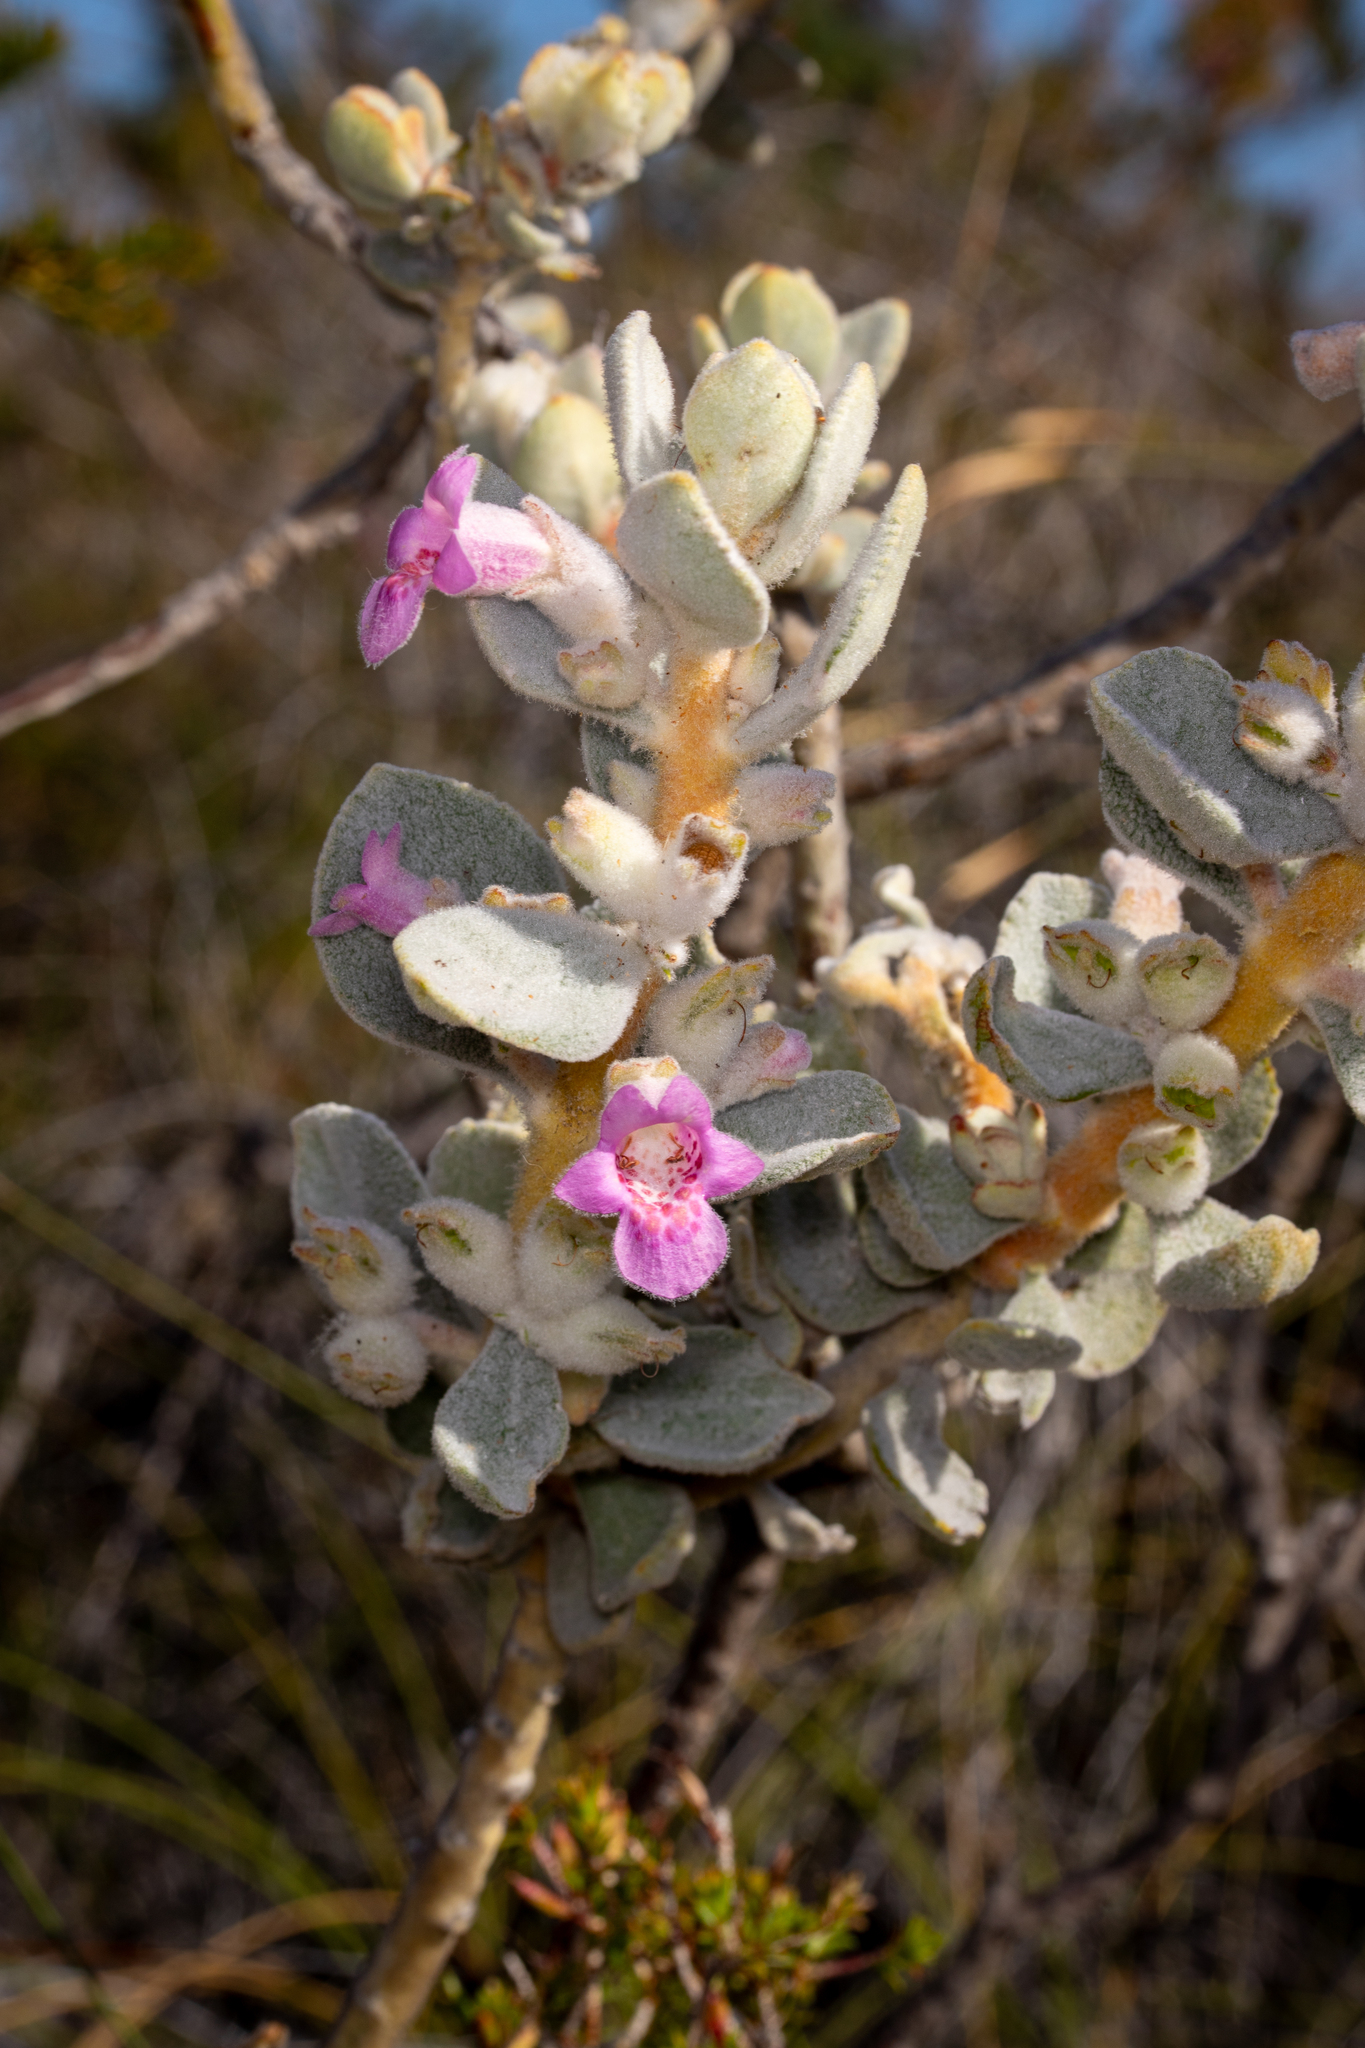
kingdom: Plantae
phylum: Tracheophyta
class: Magnoliopsida
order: Lamiales
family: Lamiaceae
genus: Quoya
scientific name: Quoya oldfieldii
